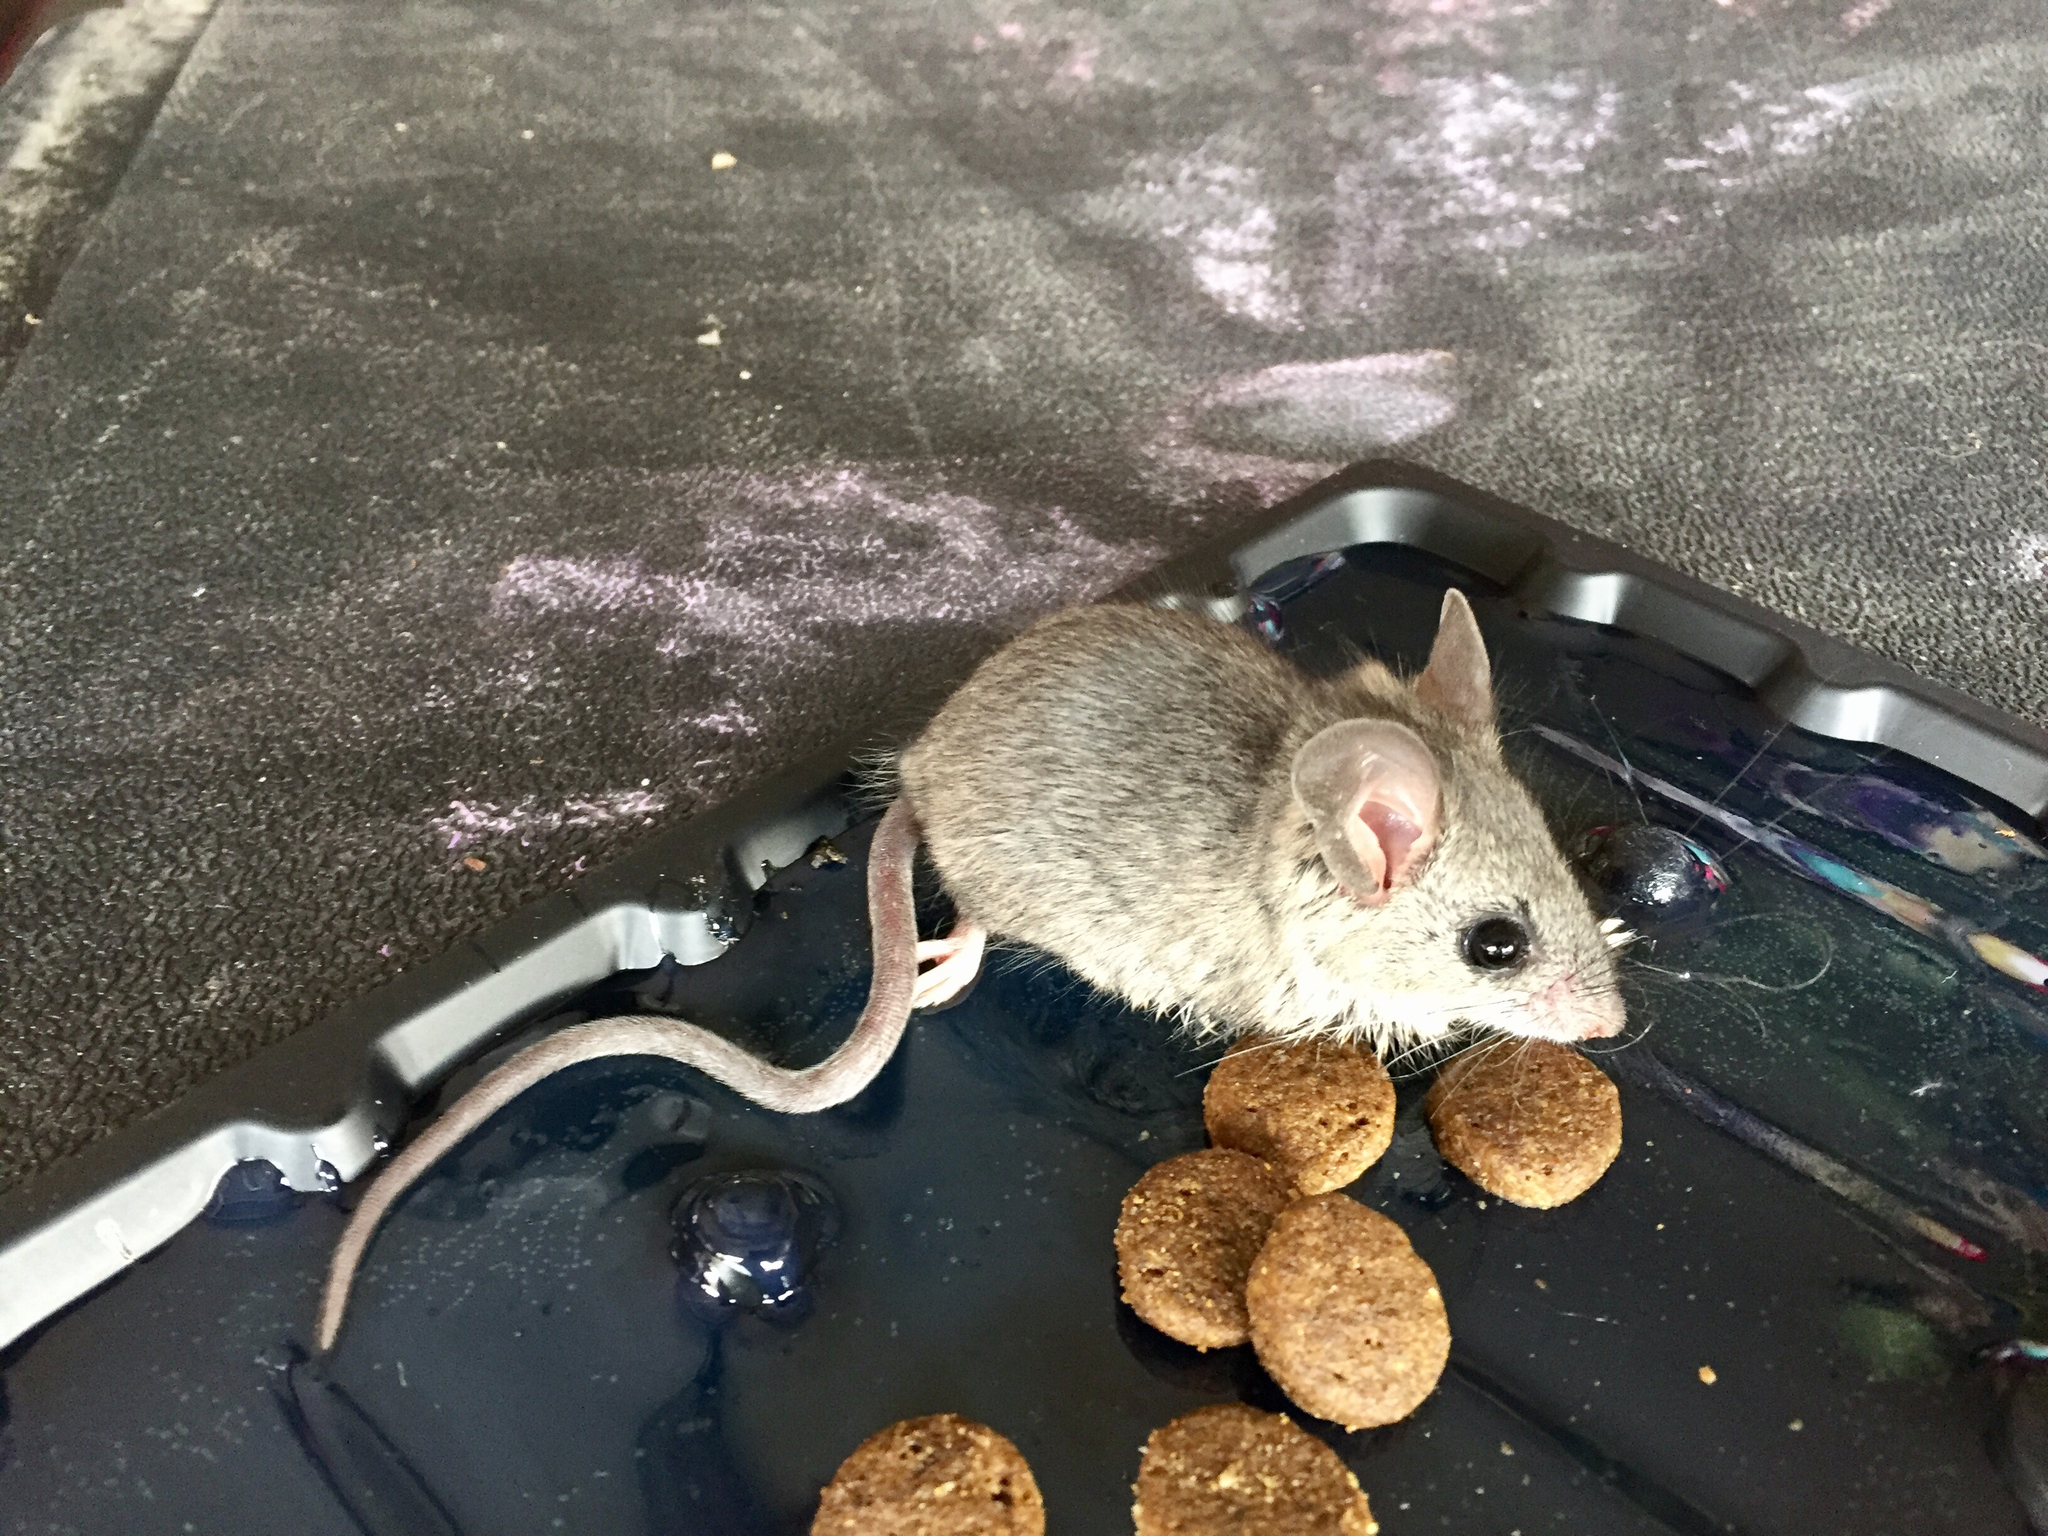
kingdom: Animalia
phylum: Chordata
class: Mammalia
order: Rodentia
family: Muridae
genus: Mus
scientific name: Mus musculus
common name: House mouse
